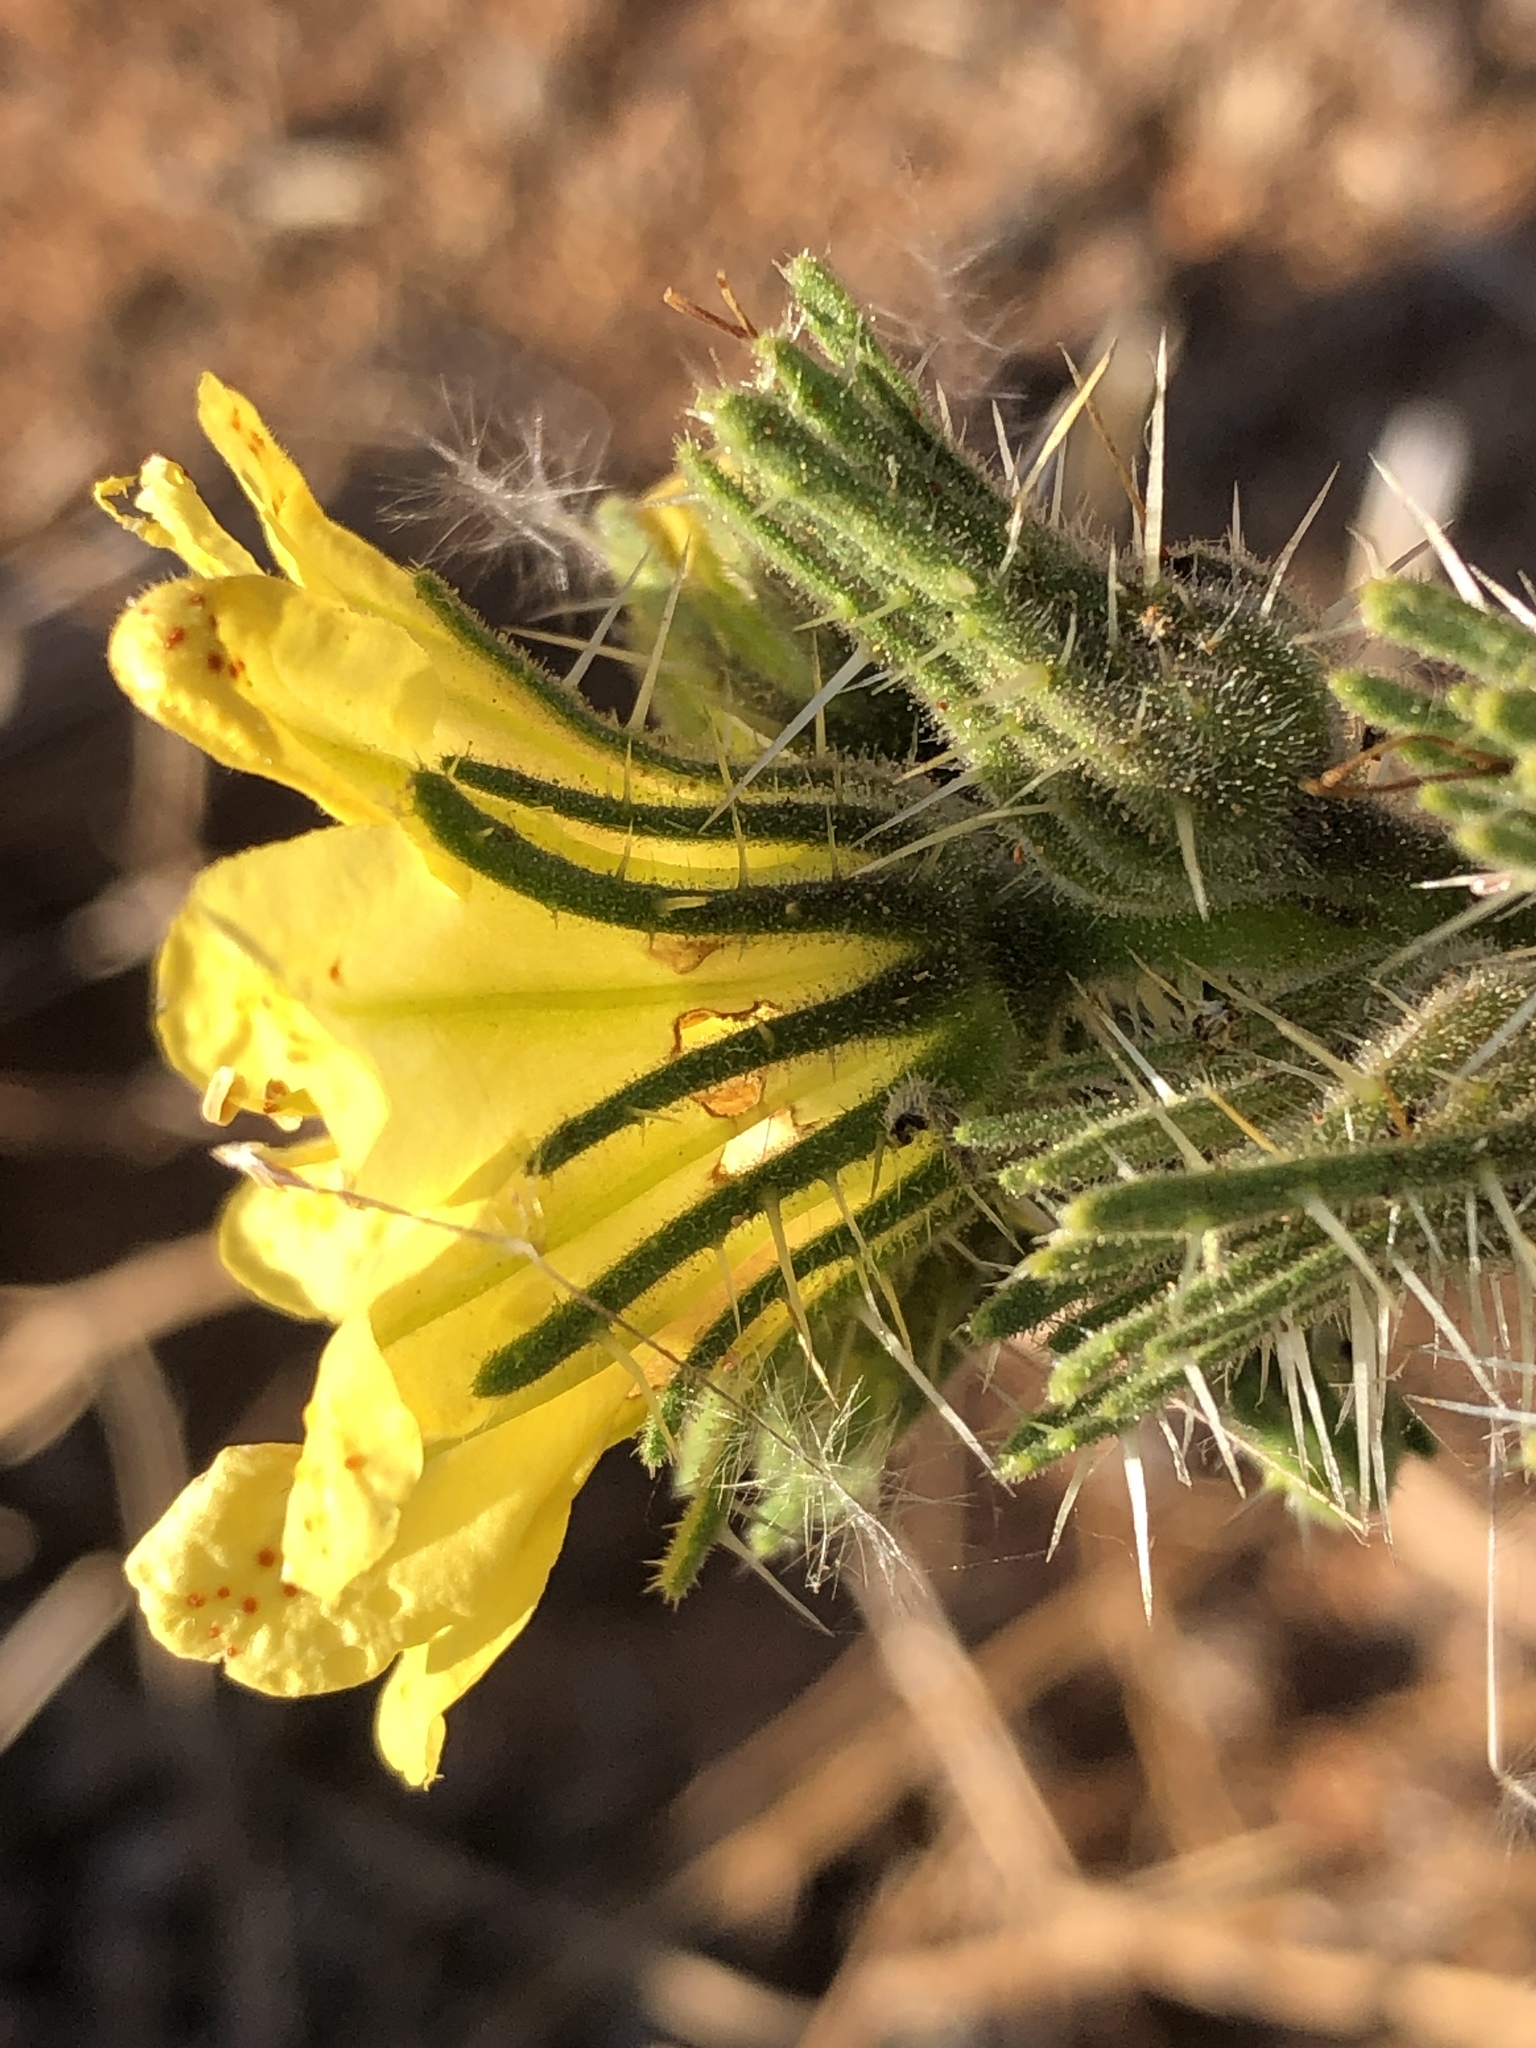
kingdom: Plantae
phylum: Tracheophyta
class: Magnoliopsida
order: Boraginales
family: Codonaceae
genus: Codon
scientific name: Codon schenckii
